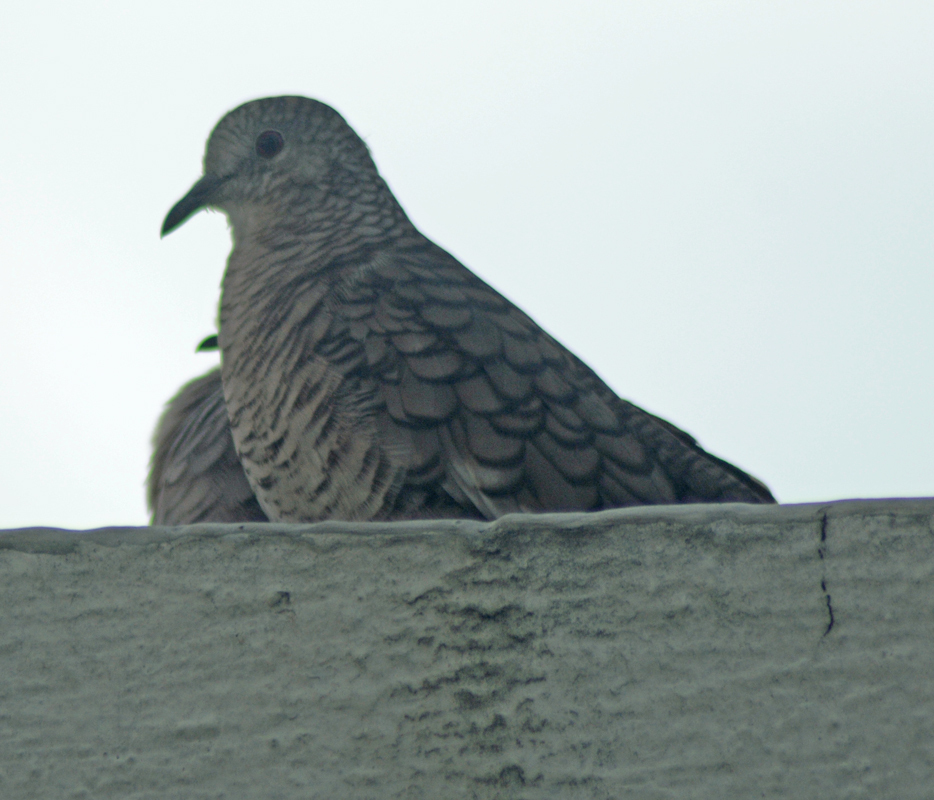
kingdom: Animalia
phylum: Chordata
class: Aves
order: Columbiformes
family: Columbidae
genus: Columbina
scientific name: Columbina inca
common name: Inca dove
